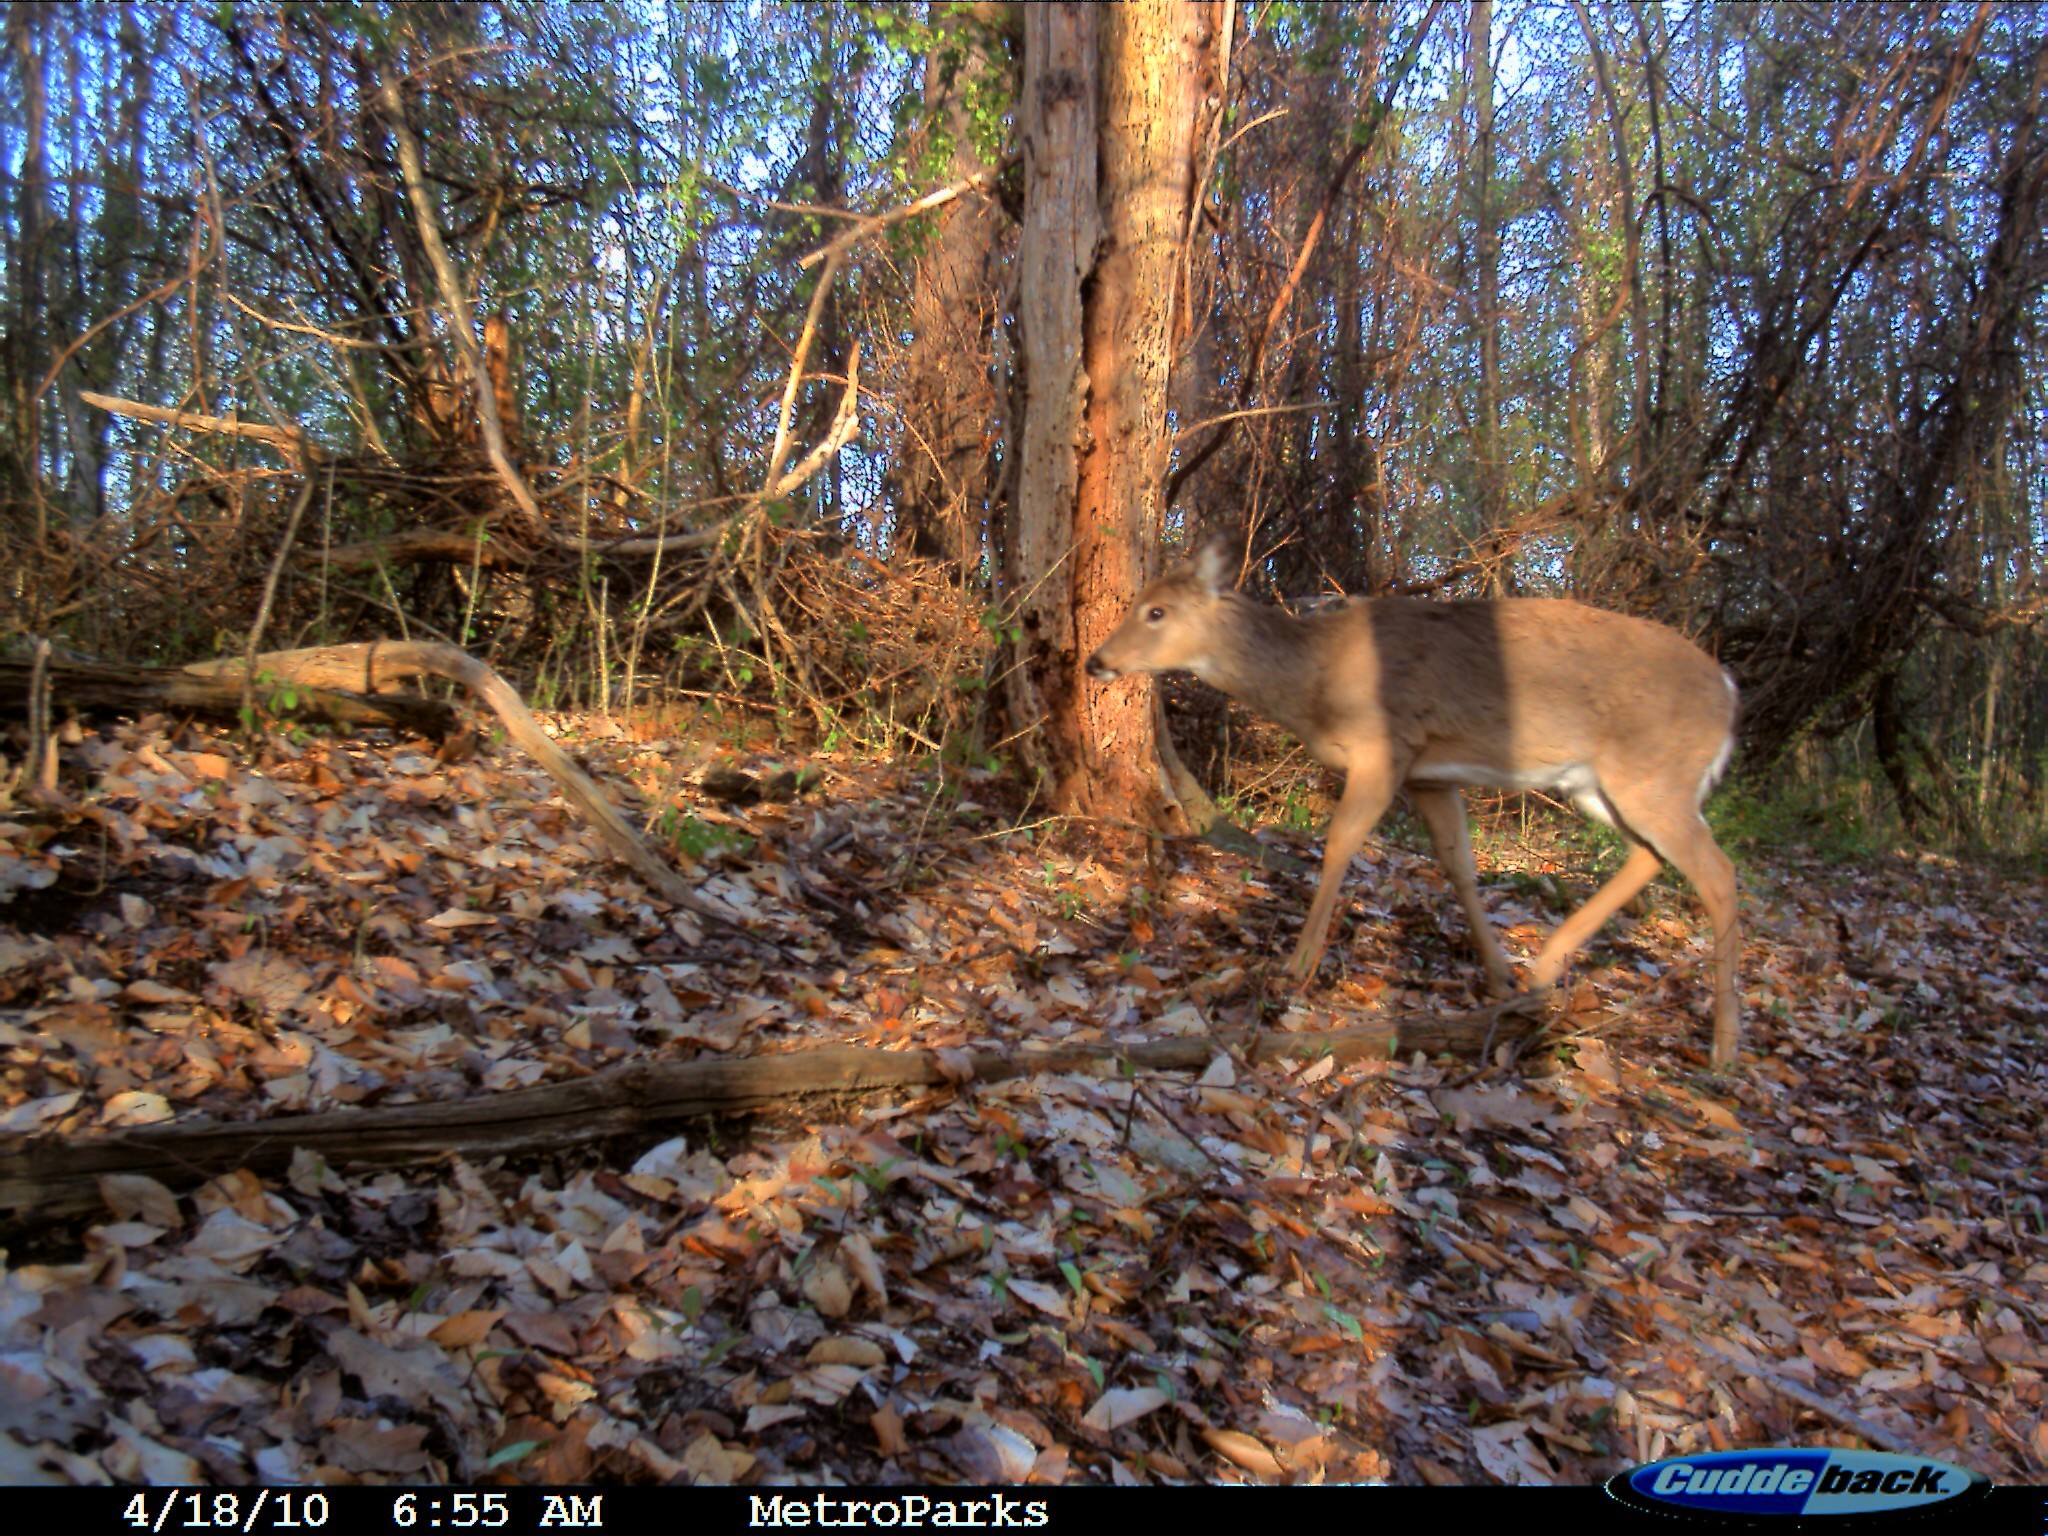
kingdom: Animalia
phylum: Chordata
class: Mammalia
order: Artiodactyla
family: Cervidae
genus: Odocoileus
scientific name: Odocoileus virginianus
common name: White-tailed deer
